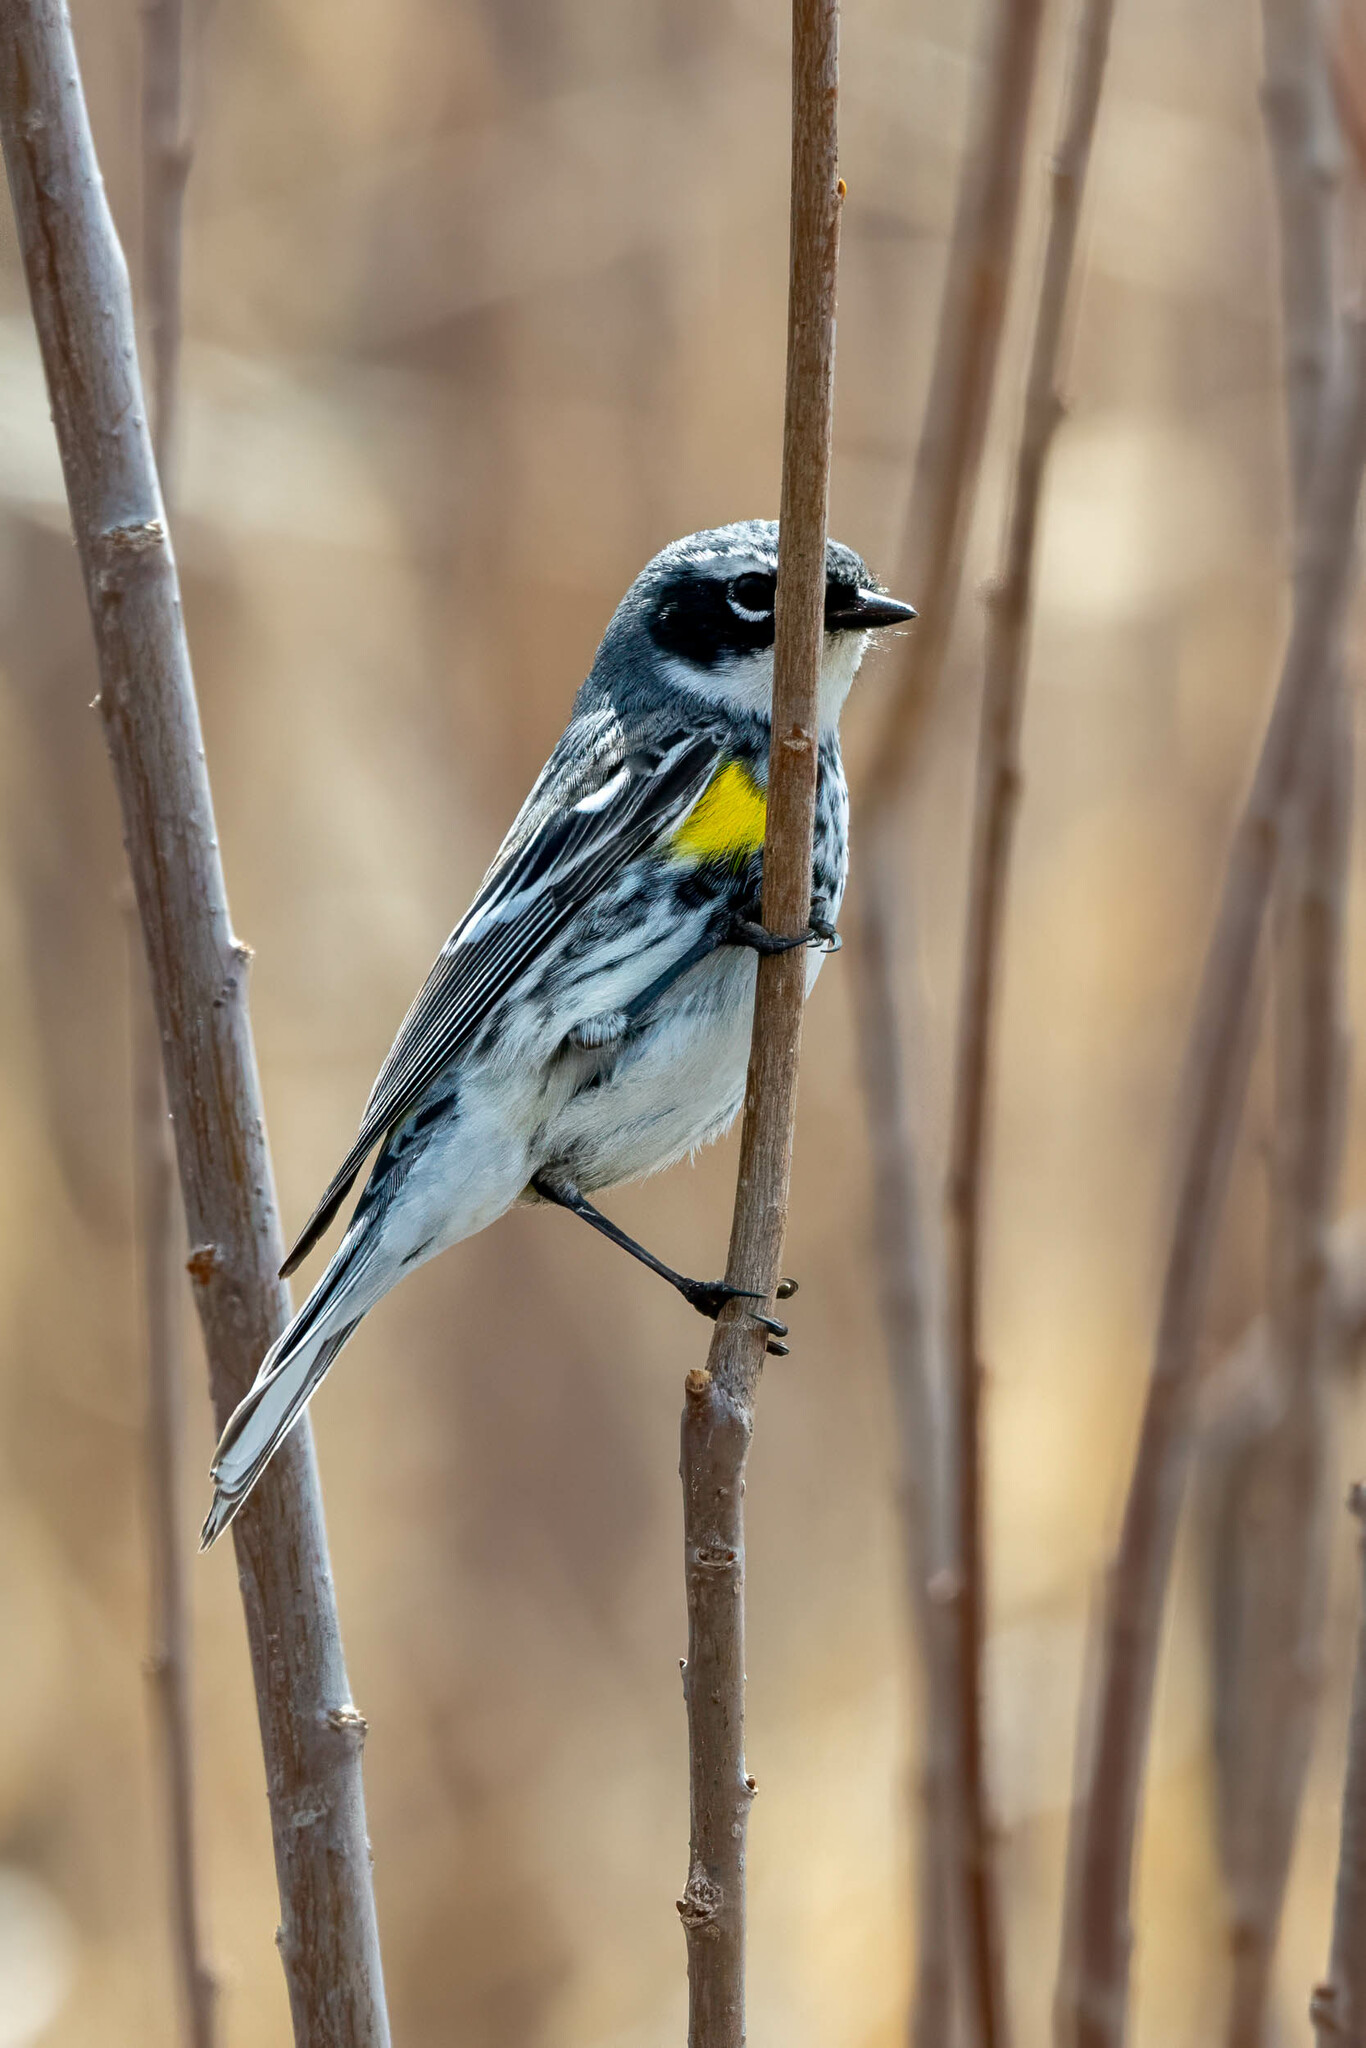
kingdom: Animalia
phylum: Chordata
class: Aves
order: Passeriformes
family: Parulidae
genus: Setophaga
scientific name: Setophaga coronata
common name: Myrtle warbler
